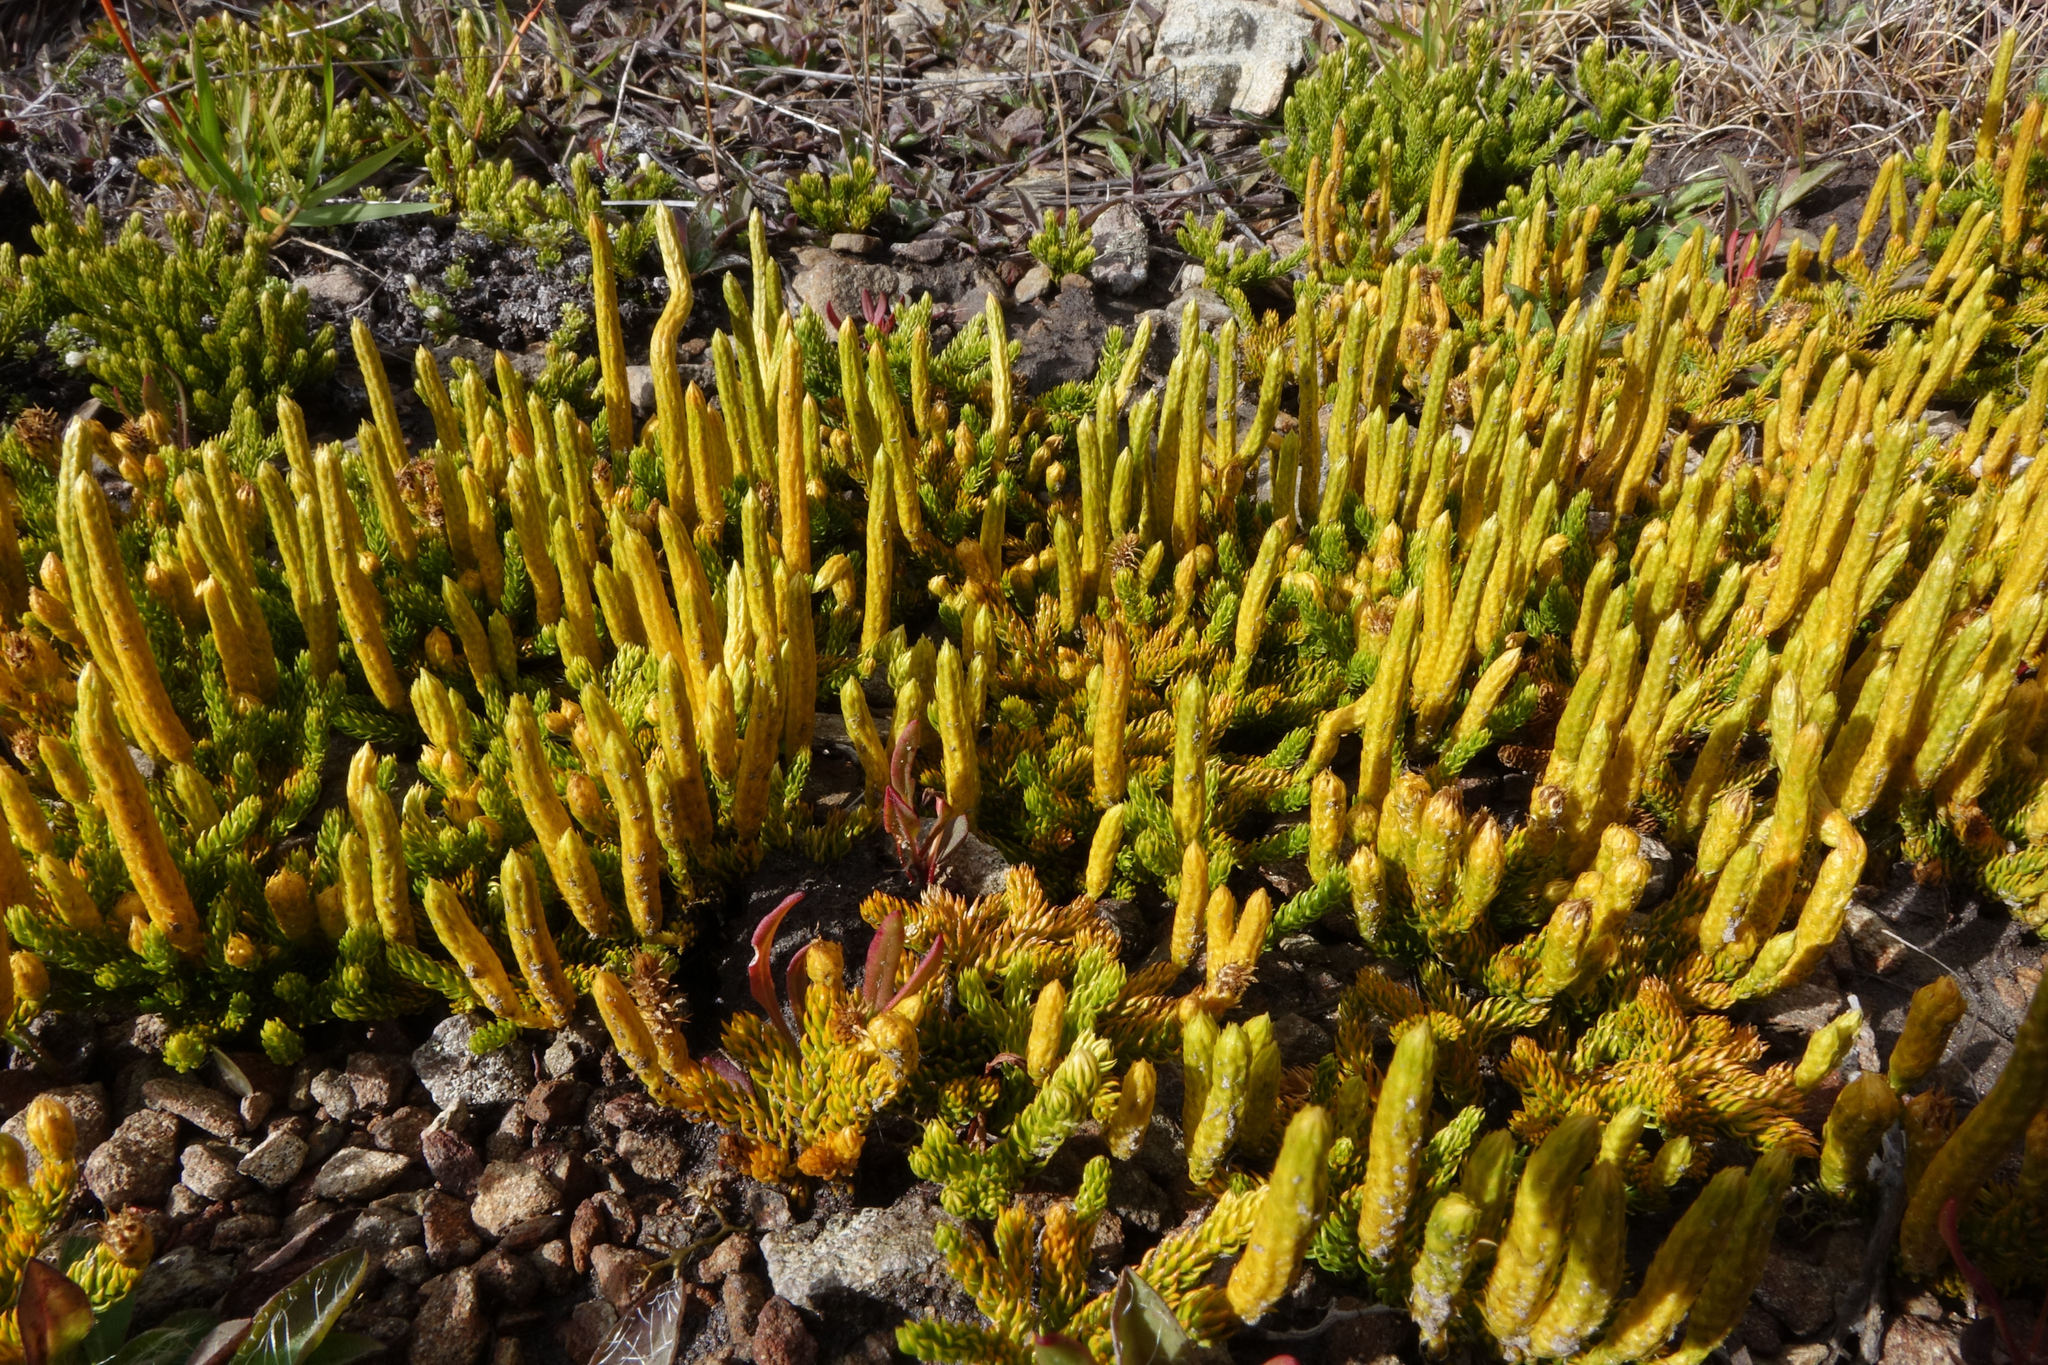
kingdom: Plantae
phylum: Tracheophyta
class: Lycopodiopsida
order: Lycopodiales
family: Lycopodiaceae
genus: Austrolycopodium
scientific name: Austrolycopodium fastigiatum
